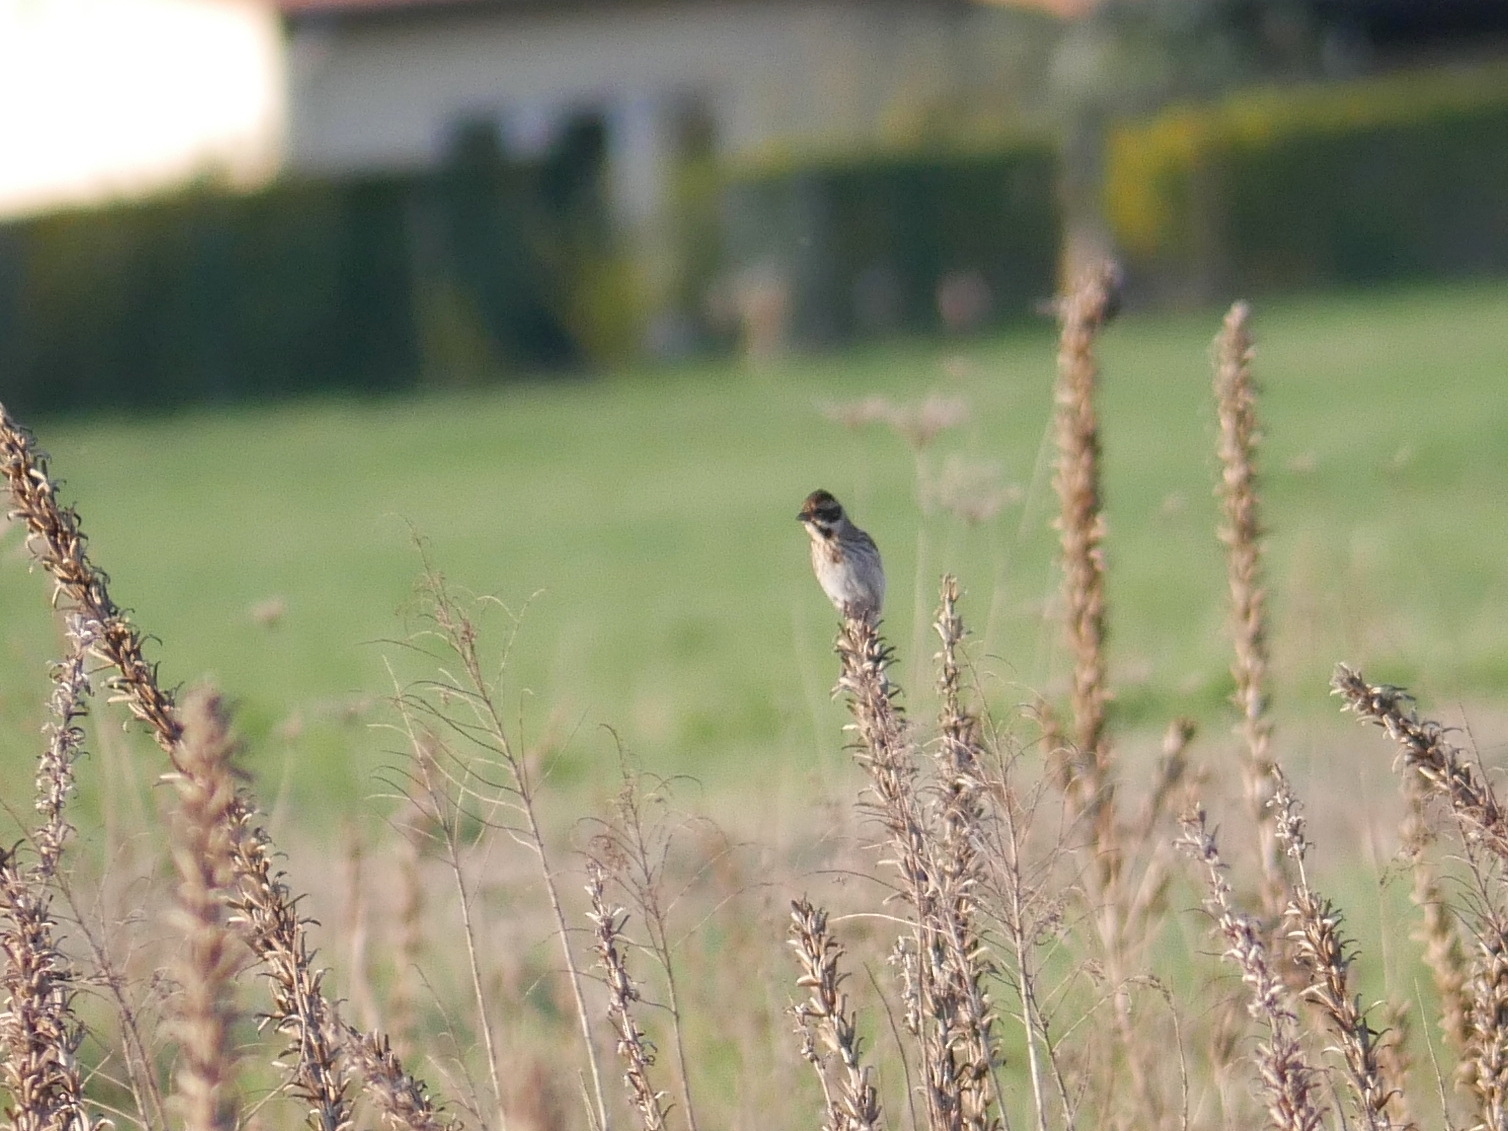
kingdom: Animalia
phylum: Chordata
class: Aves
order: Passeriformes
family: Emberizidae
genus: Emberiza
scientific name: Emberiza schoeniclus
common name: Reed bunting
